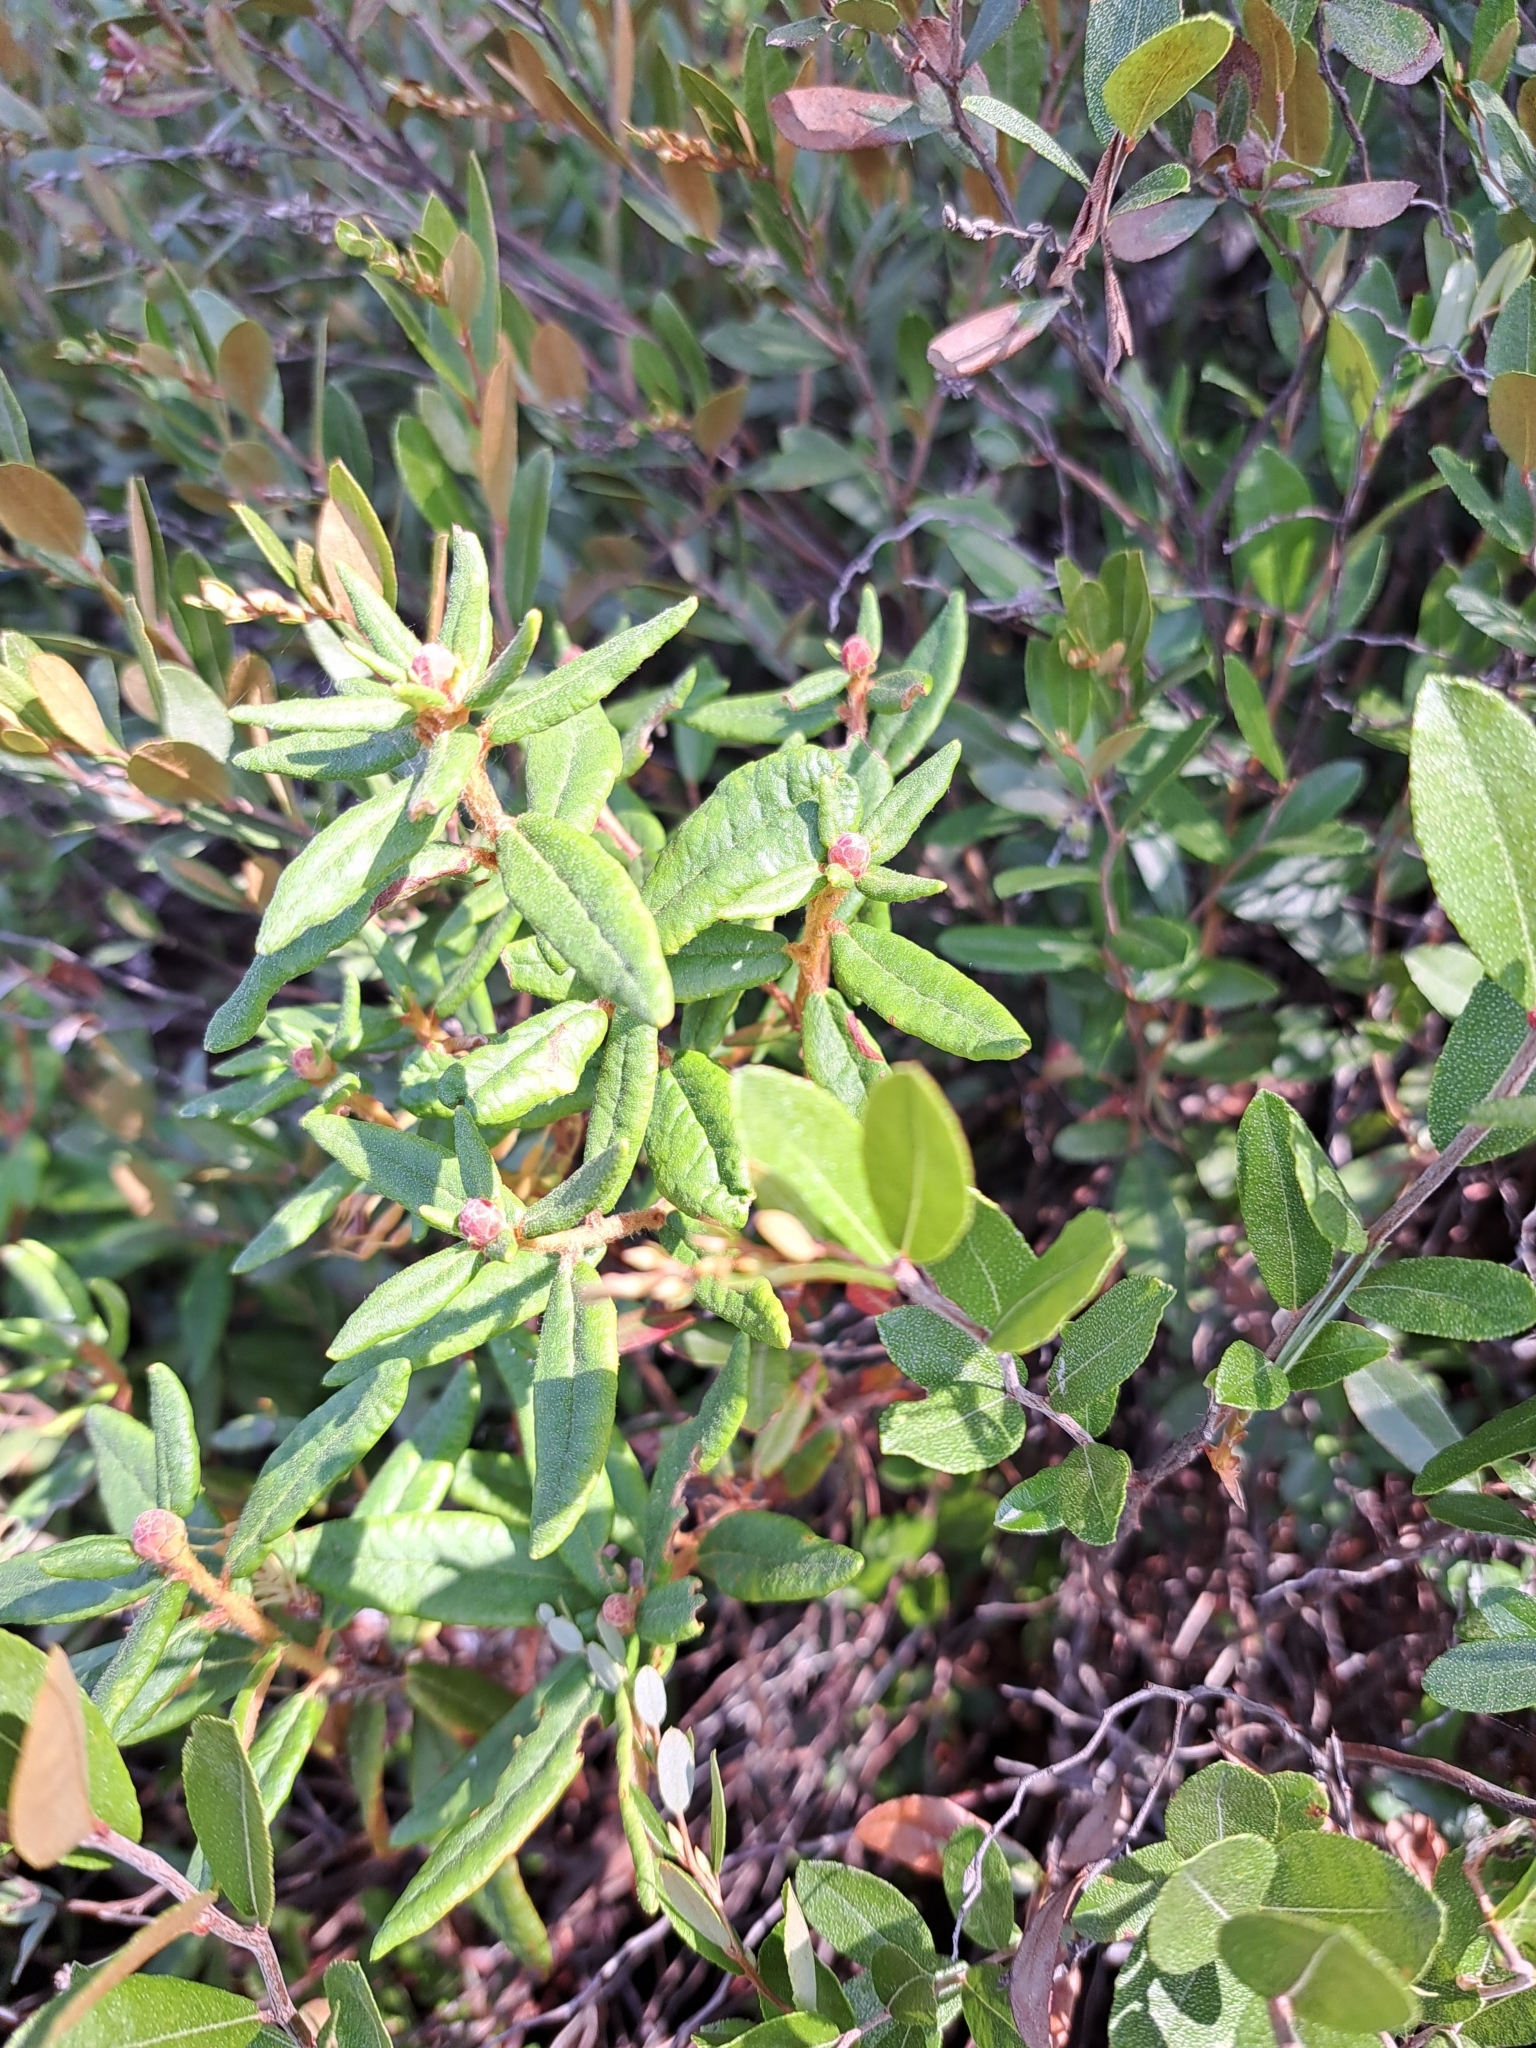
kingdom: Plantae
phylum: Tracheophyta
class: Magnoliopsida
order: Ericales
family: Ericaceae
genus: Rhododendron
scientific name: Rhododendron groenlandicum
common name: Bog labrador tea
